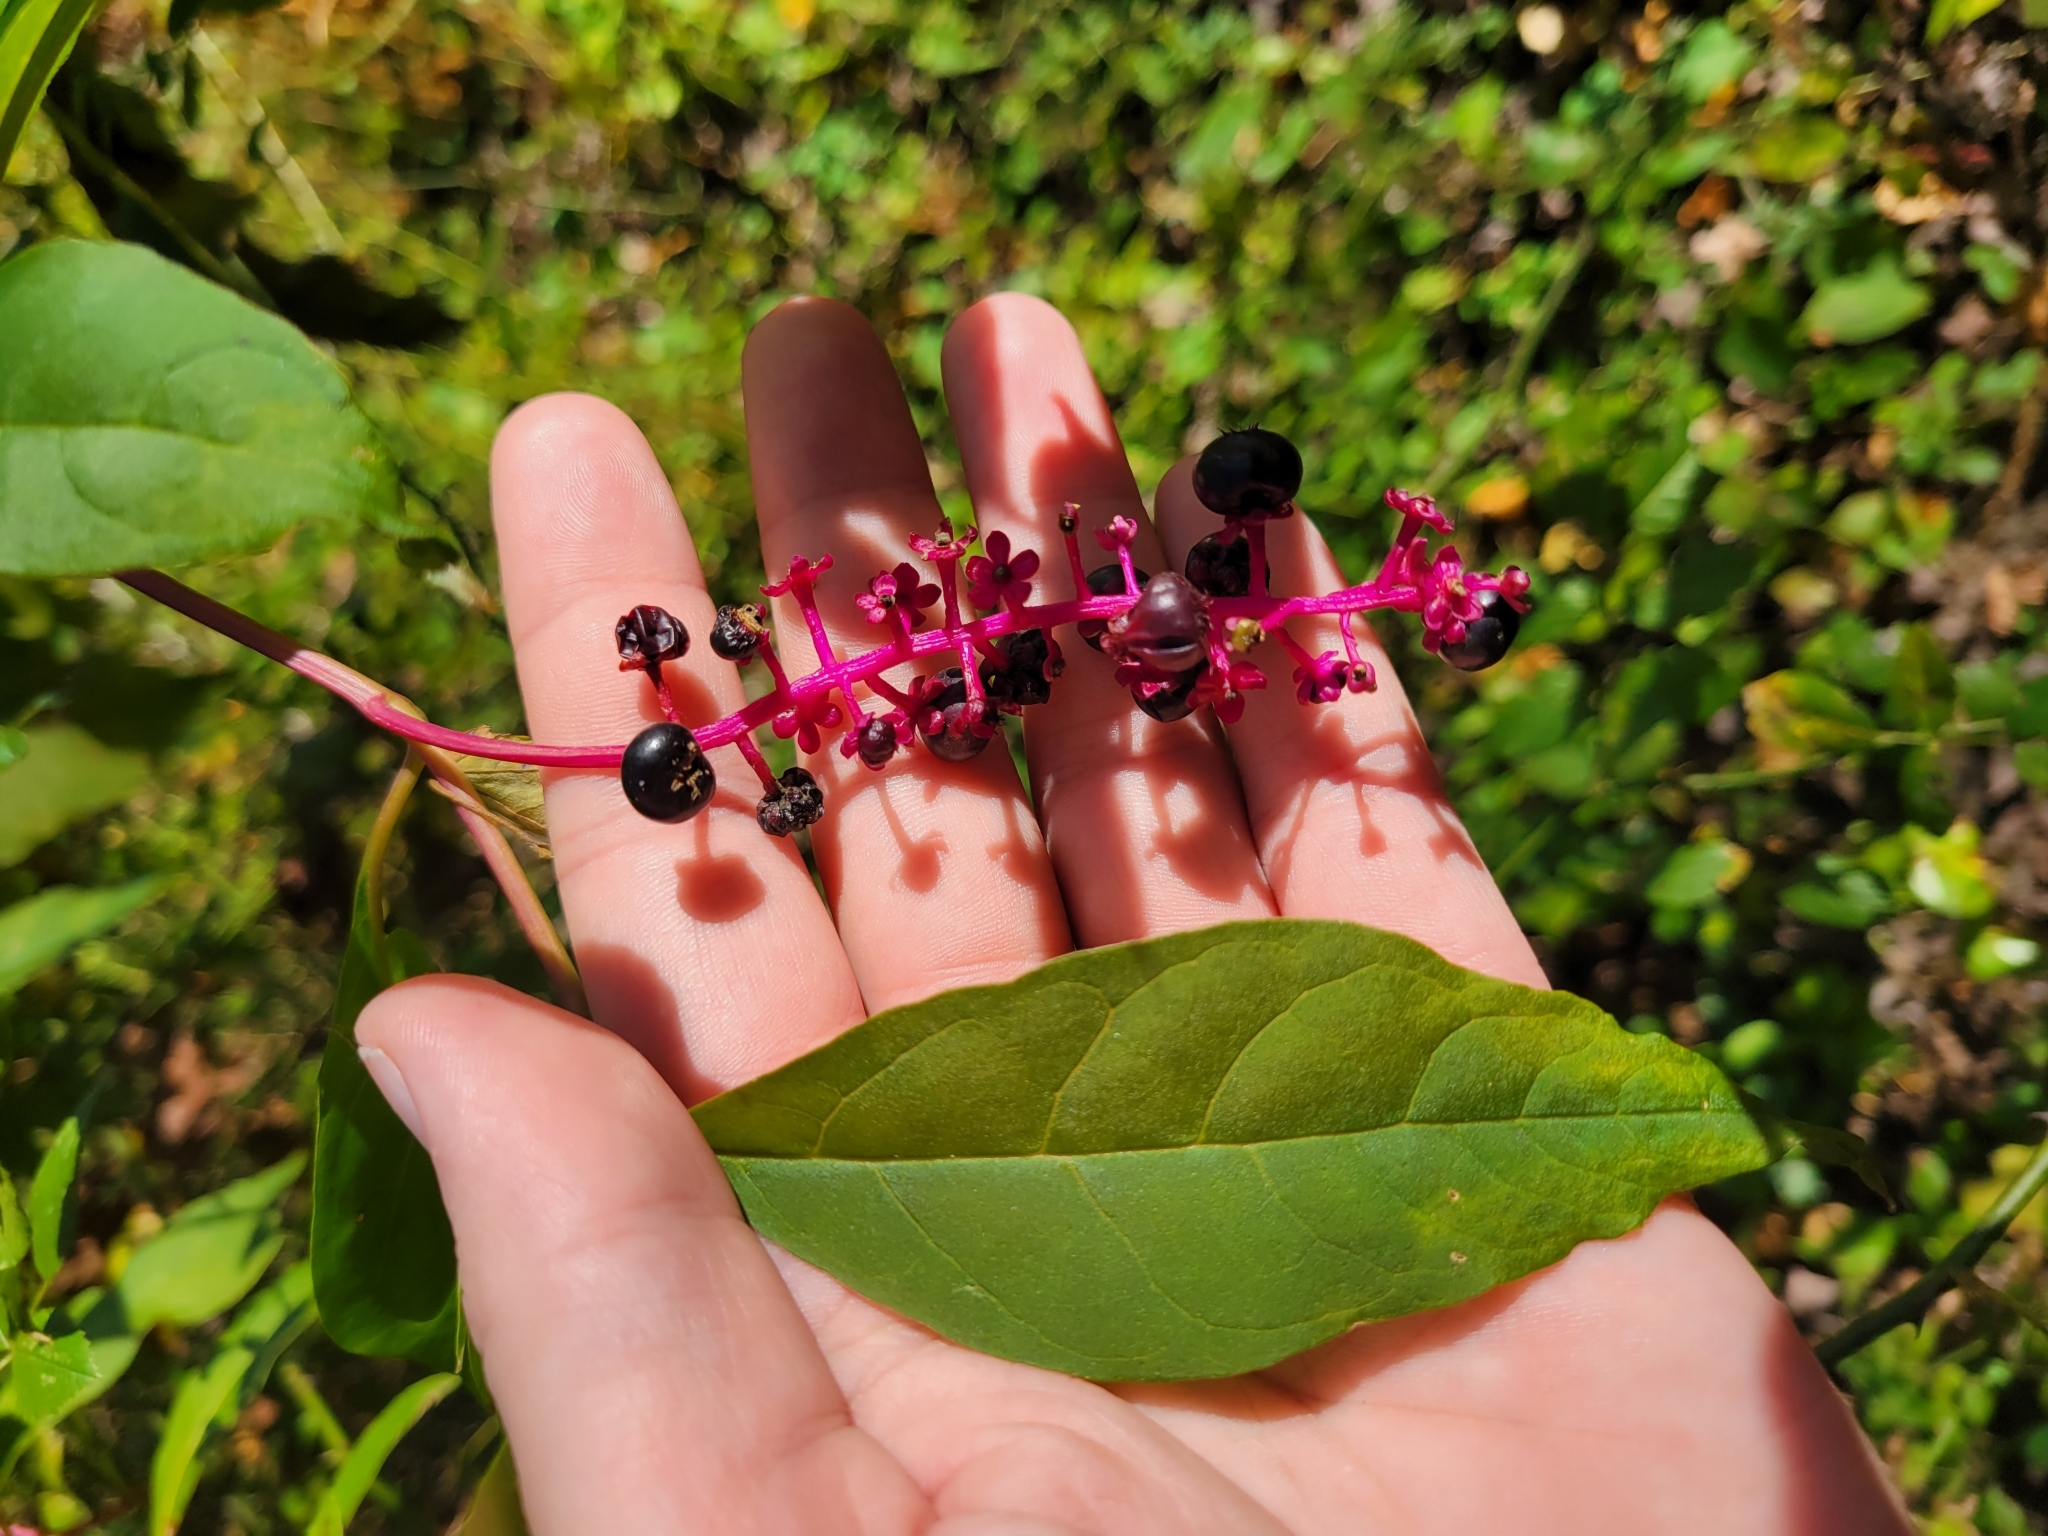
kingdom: Plantae
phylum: Tracheophyta
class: Magnoliopsida
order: Caryophyllales
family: Phytolaccaceae
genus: Phytolacca
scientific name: Phytolacca americana
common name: American pokeweed
